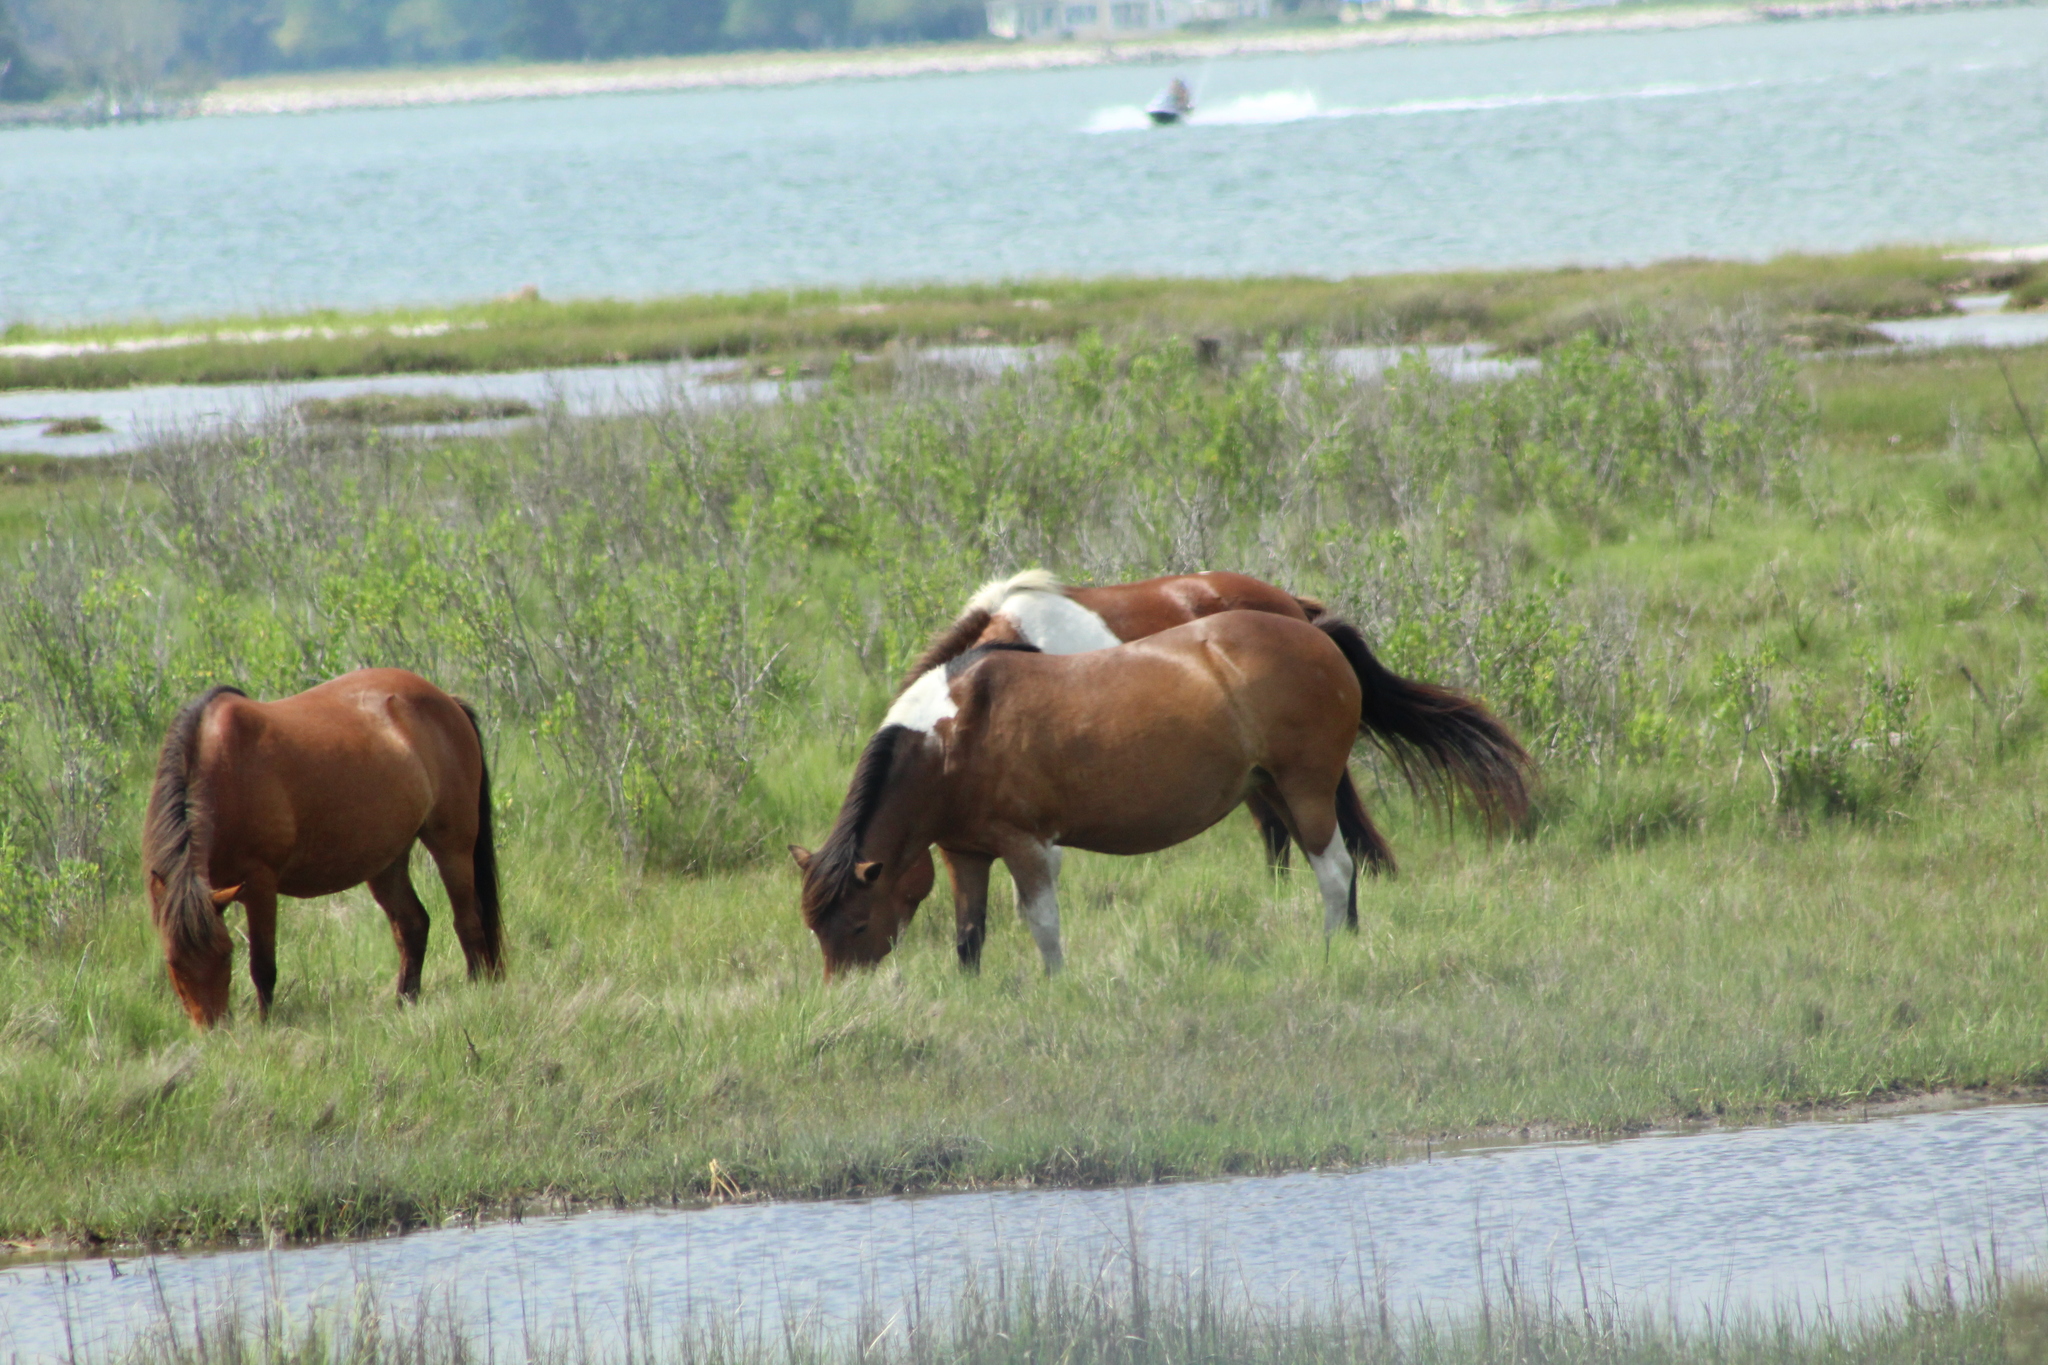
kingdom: Animalia
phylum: Chordata
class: Mammalia
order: Perissodactyla
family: Equidae
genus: Equus
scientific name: Equus caballus
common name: Horse
